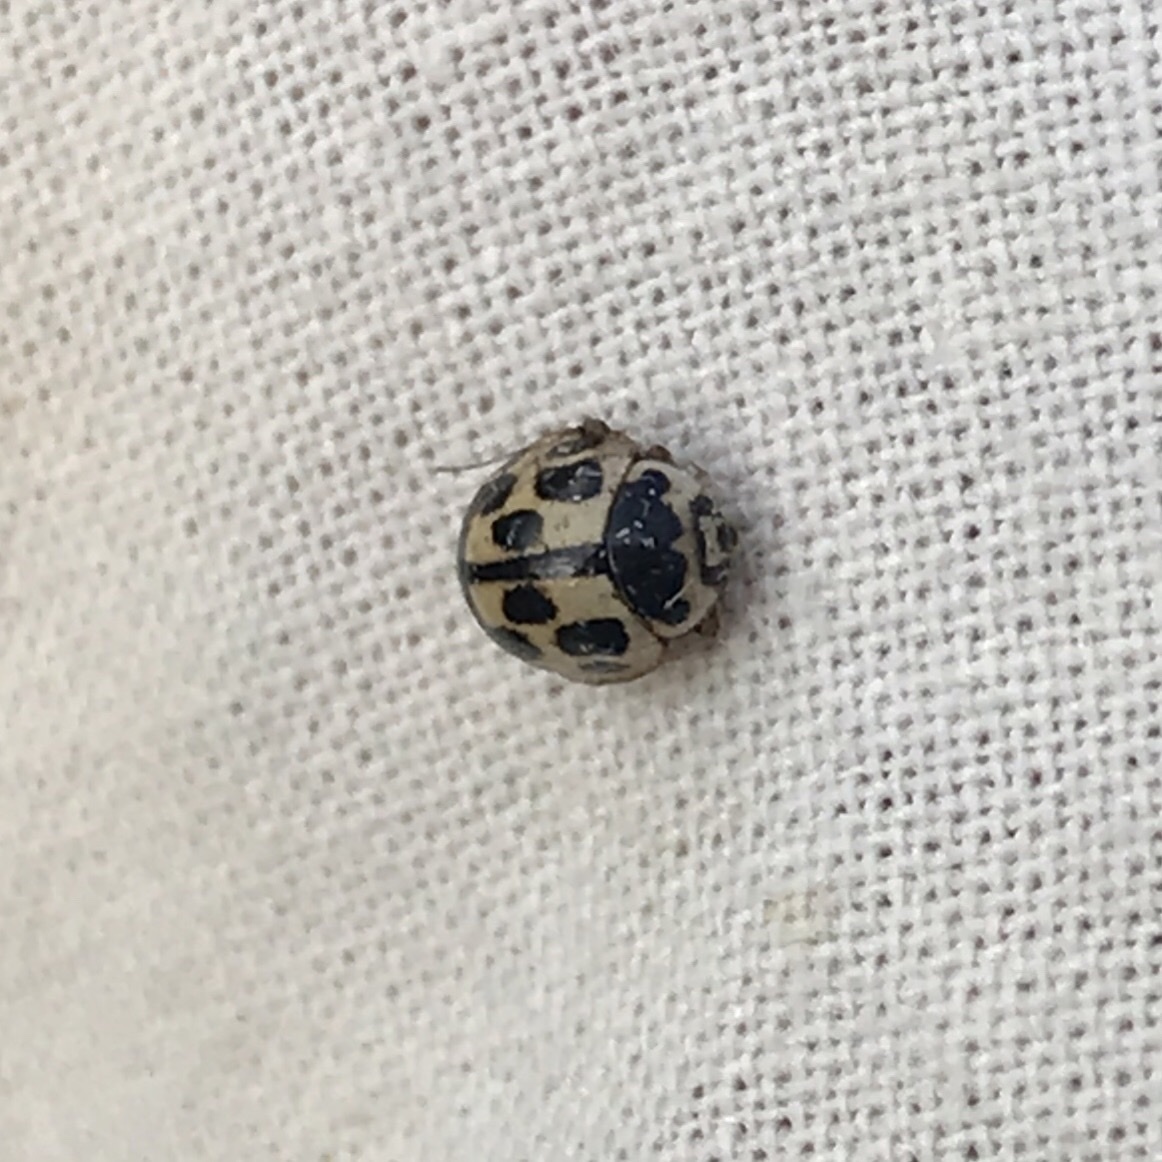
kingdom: Animalia
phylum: Arthropoda
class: Insecta
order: Coleoptera
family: Coccinellidae
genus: Propylaea
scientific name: Propylaea quatuordecimpunctata
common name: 14-spotted ladybird beetle
